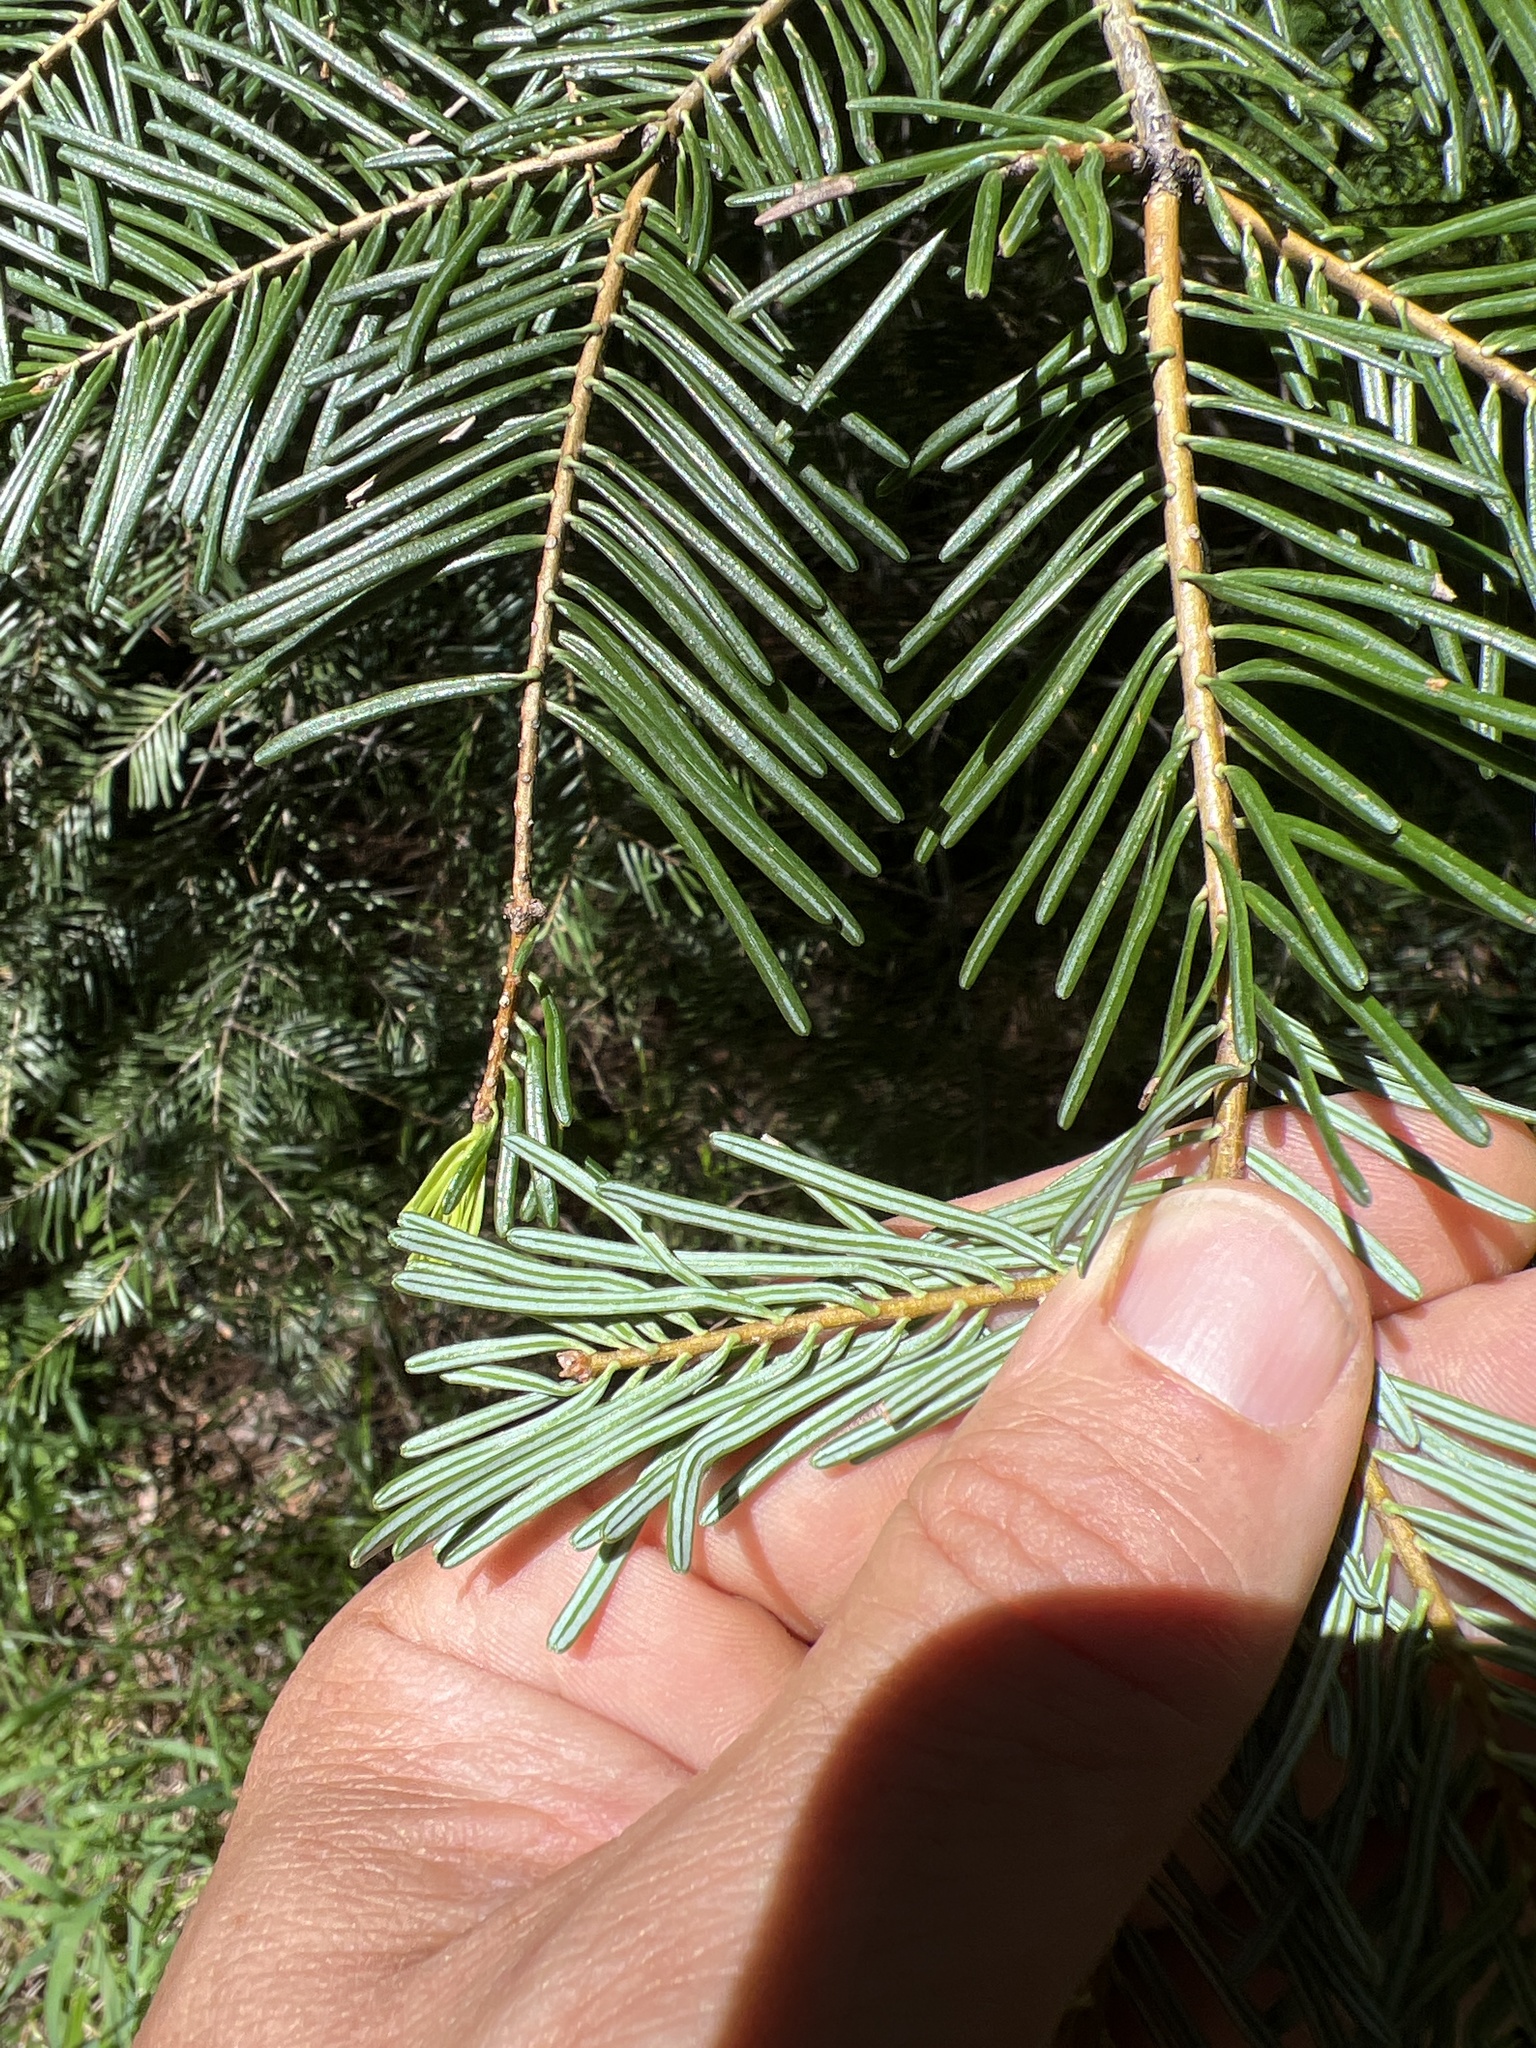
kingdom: Plantae
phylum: Tracheophyta
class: Pinopsida
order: Pinales
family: Pinaceae
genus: Abies
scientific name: Abies concolor
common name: Colorado fir
